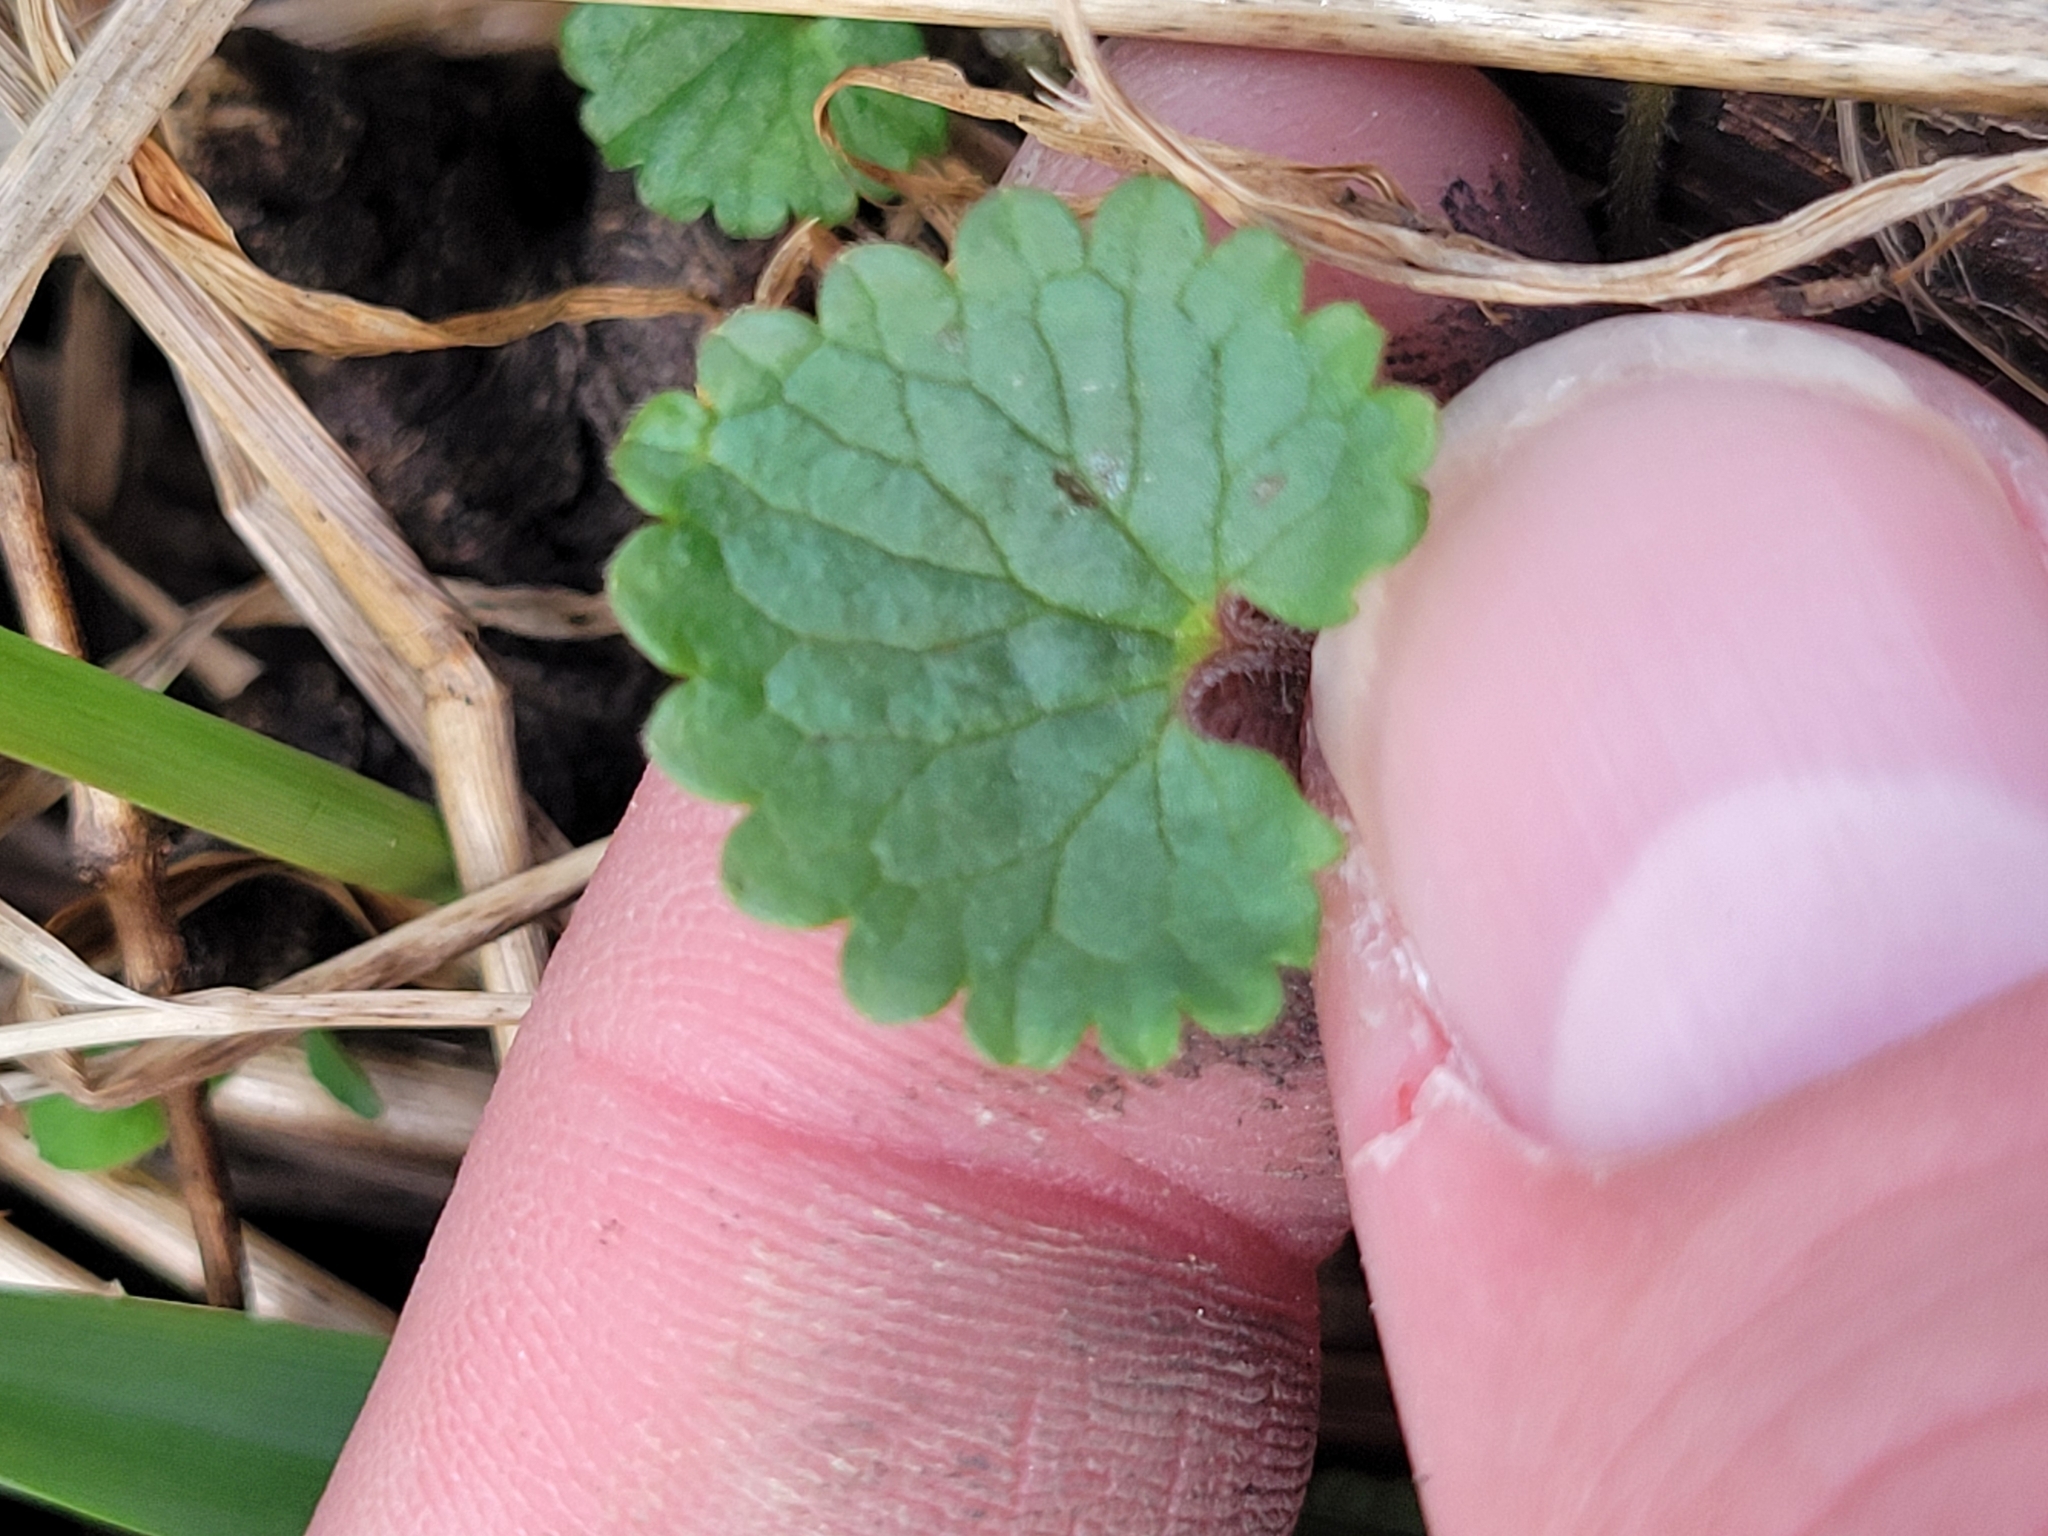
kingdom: Plantae
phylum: Tracheophyta
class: Magnoliopsida
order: Lamiales
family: Lamiaceae
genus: Glechoma
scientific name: Glechoma hederacea
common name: Ground ivy
